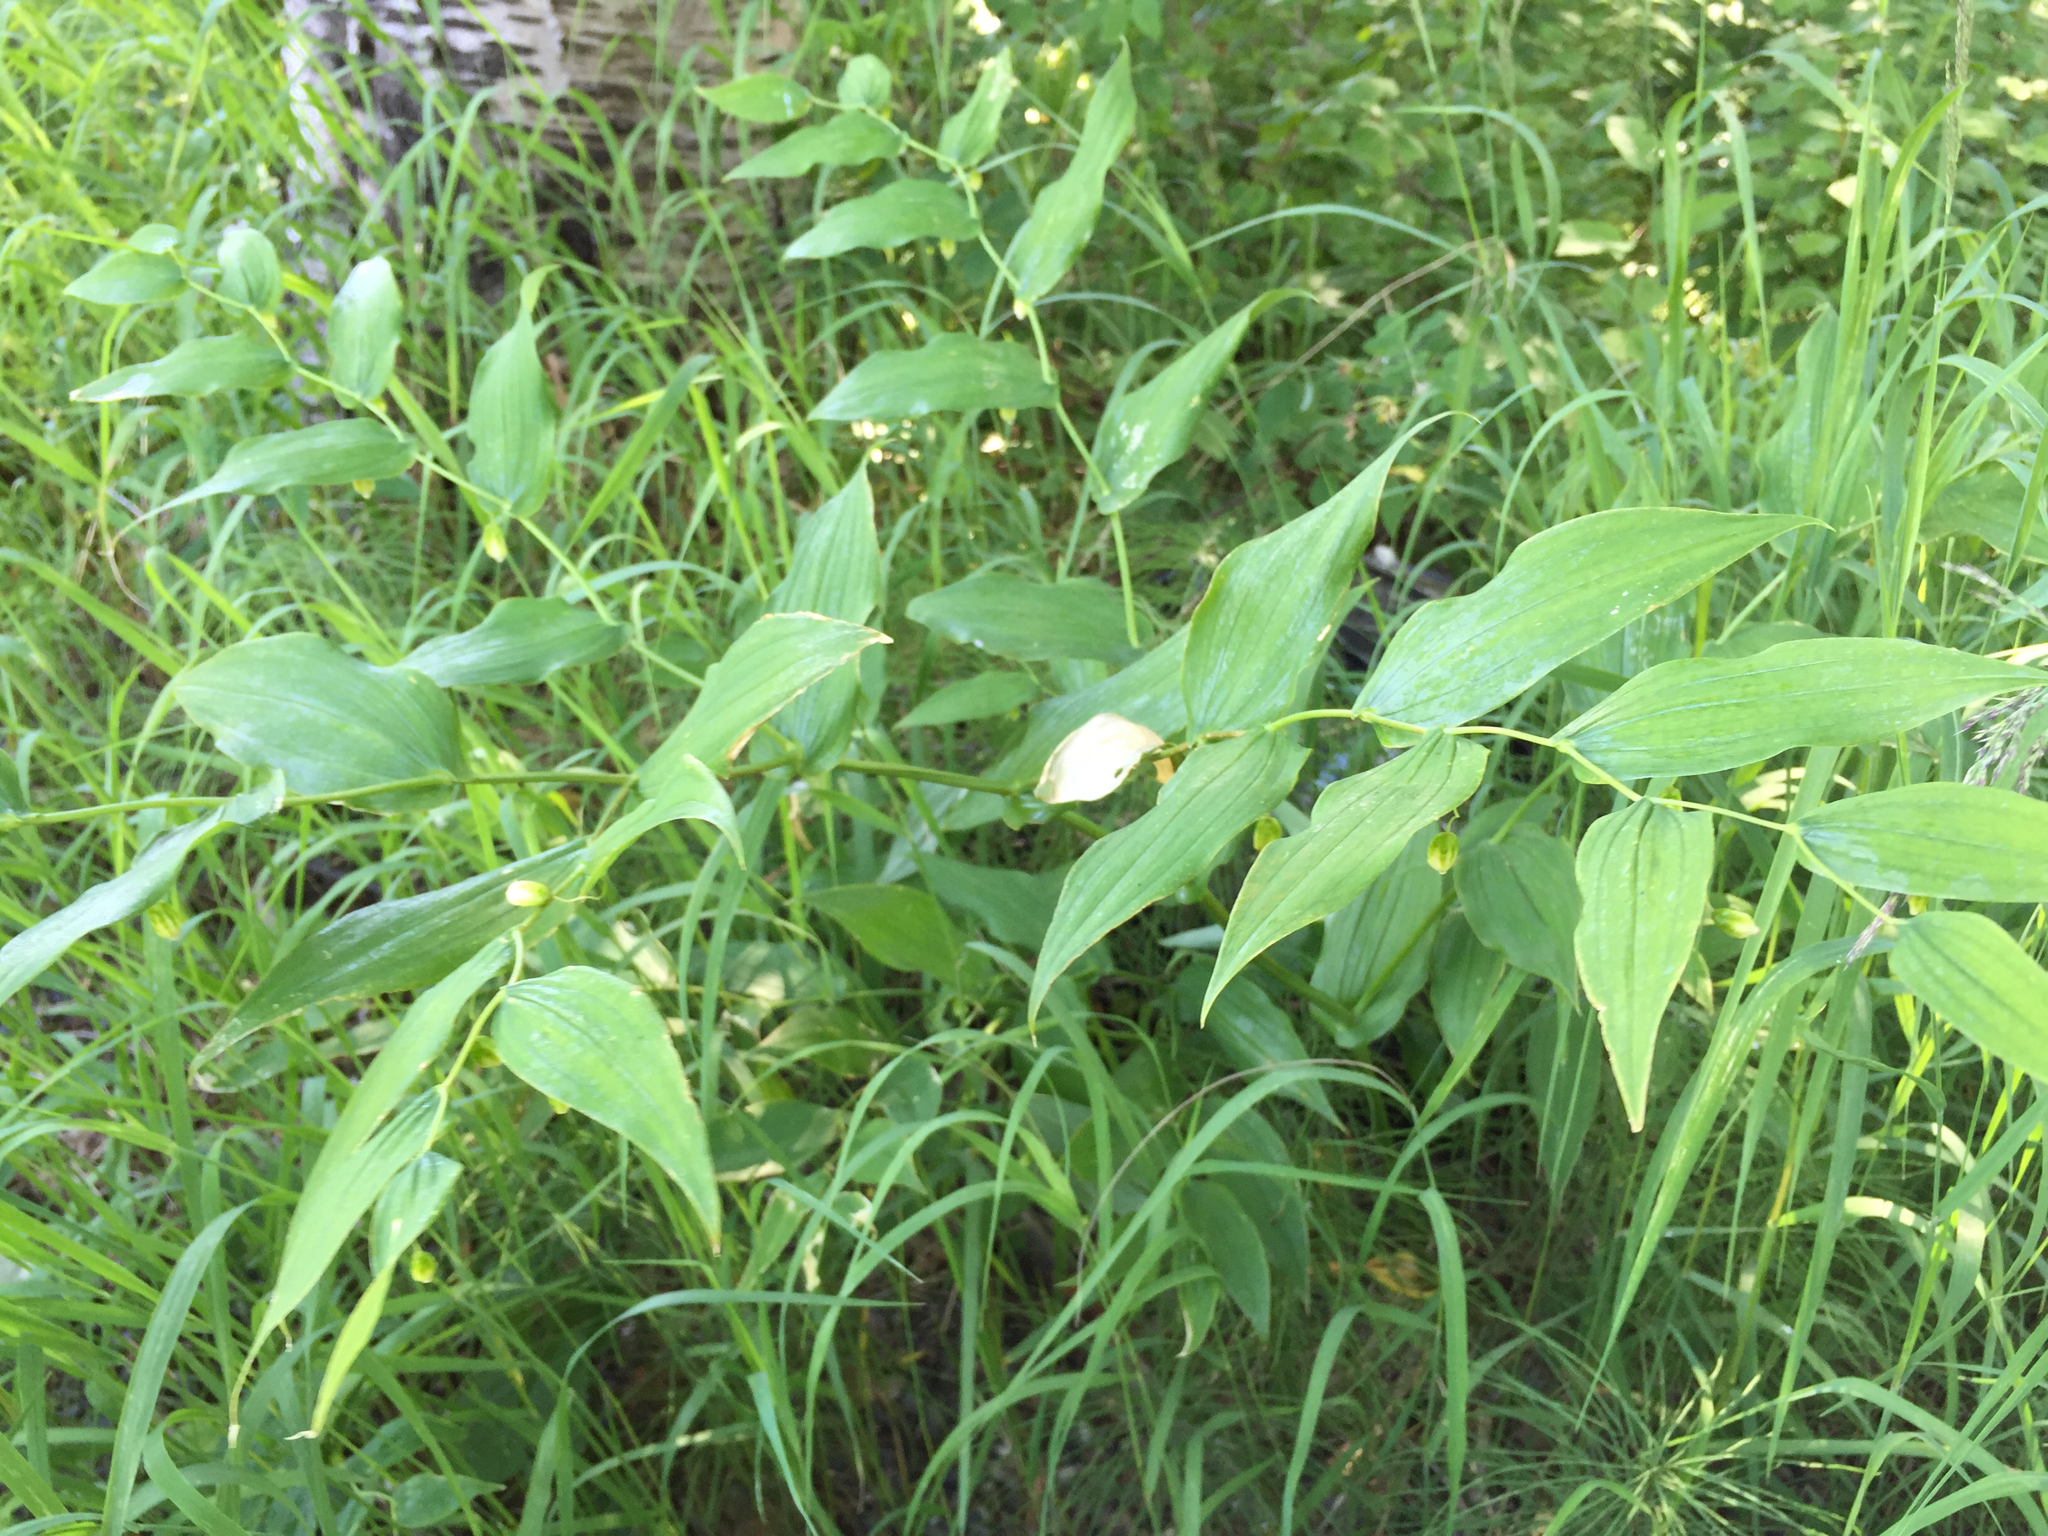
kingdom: Plantae
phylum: Tracheophyta
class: Liliopsida
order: Liliales
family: Liliaceae
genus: Streptopus
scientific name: Streptopus amplexifolius
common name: Clasp twisted stalk
